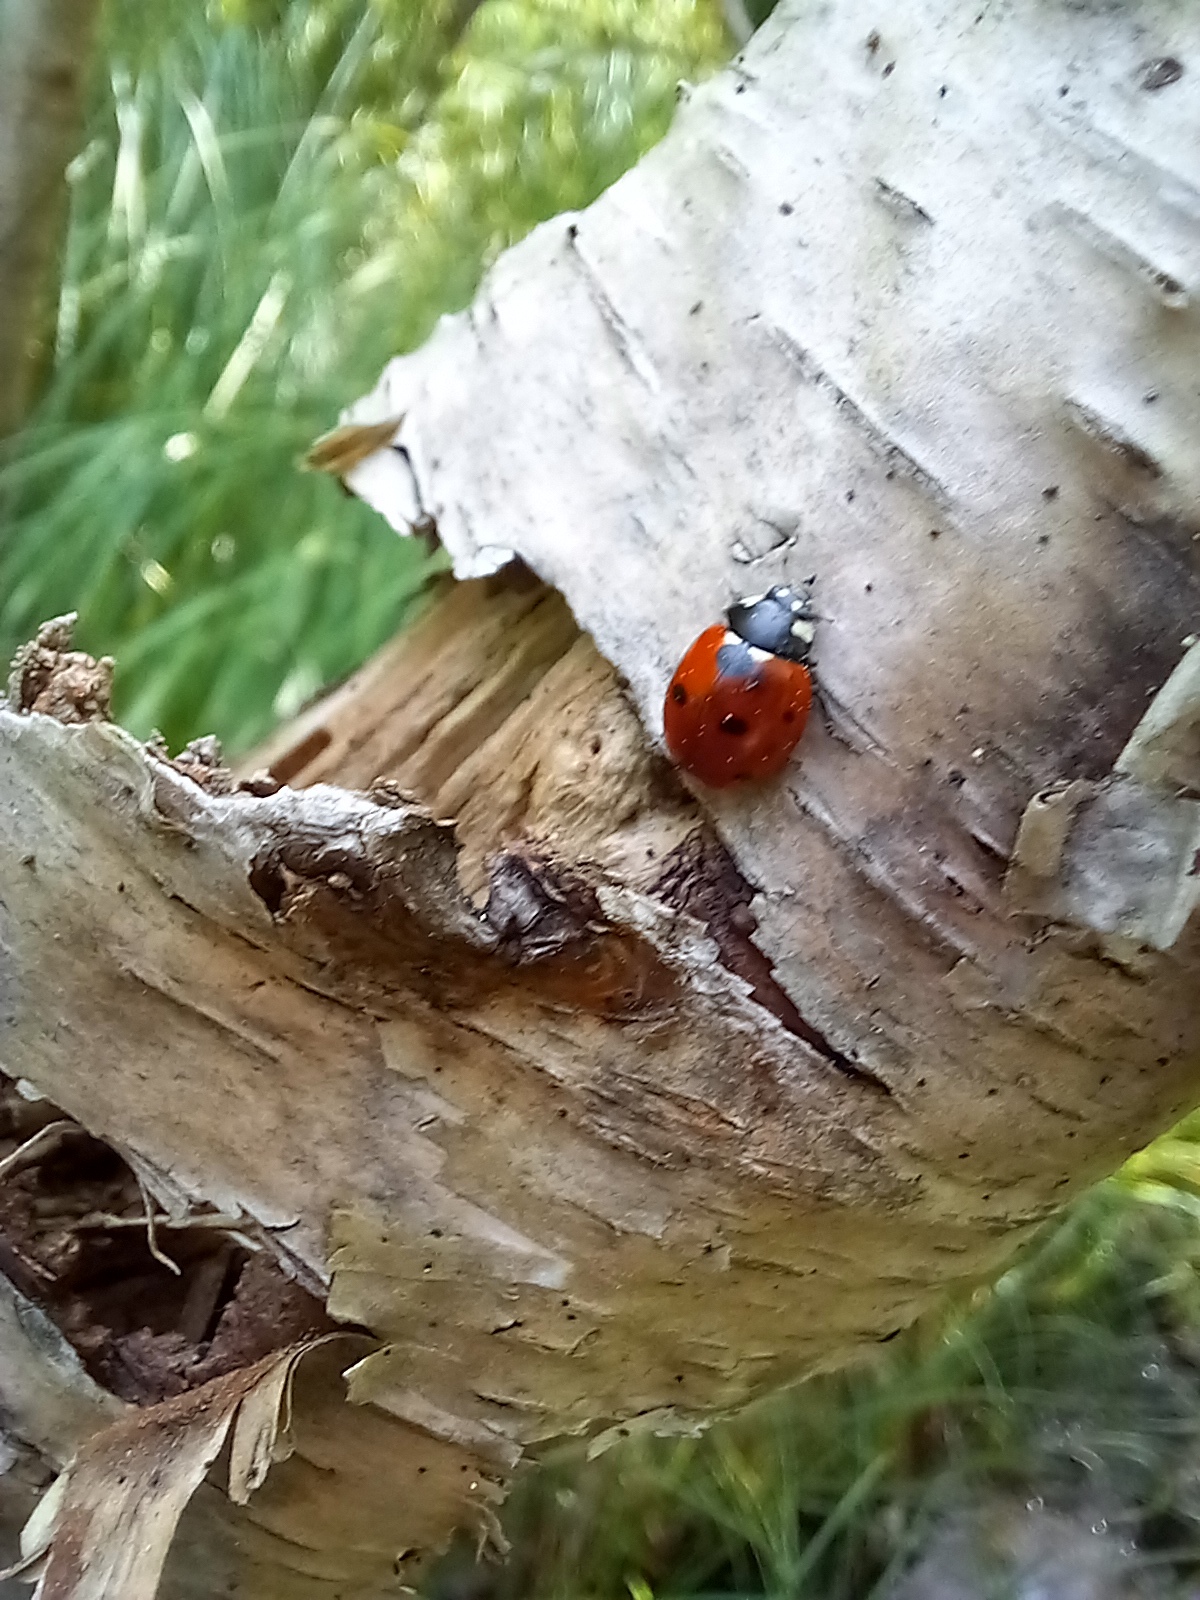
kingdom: Animalia
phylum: Arthropoda
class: Insecta
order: Coleoptera
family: Coccinellidae
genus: Coccinella
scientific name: Coccinella septempunctata
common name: Sevenspotted lady beetle
